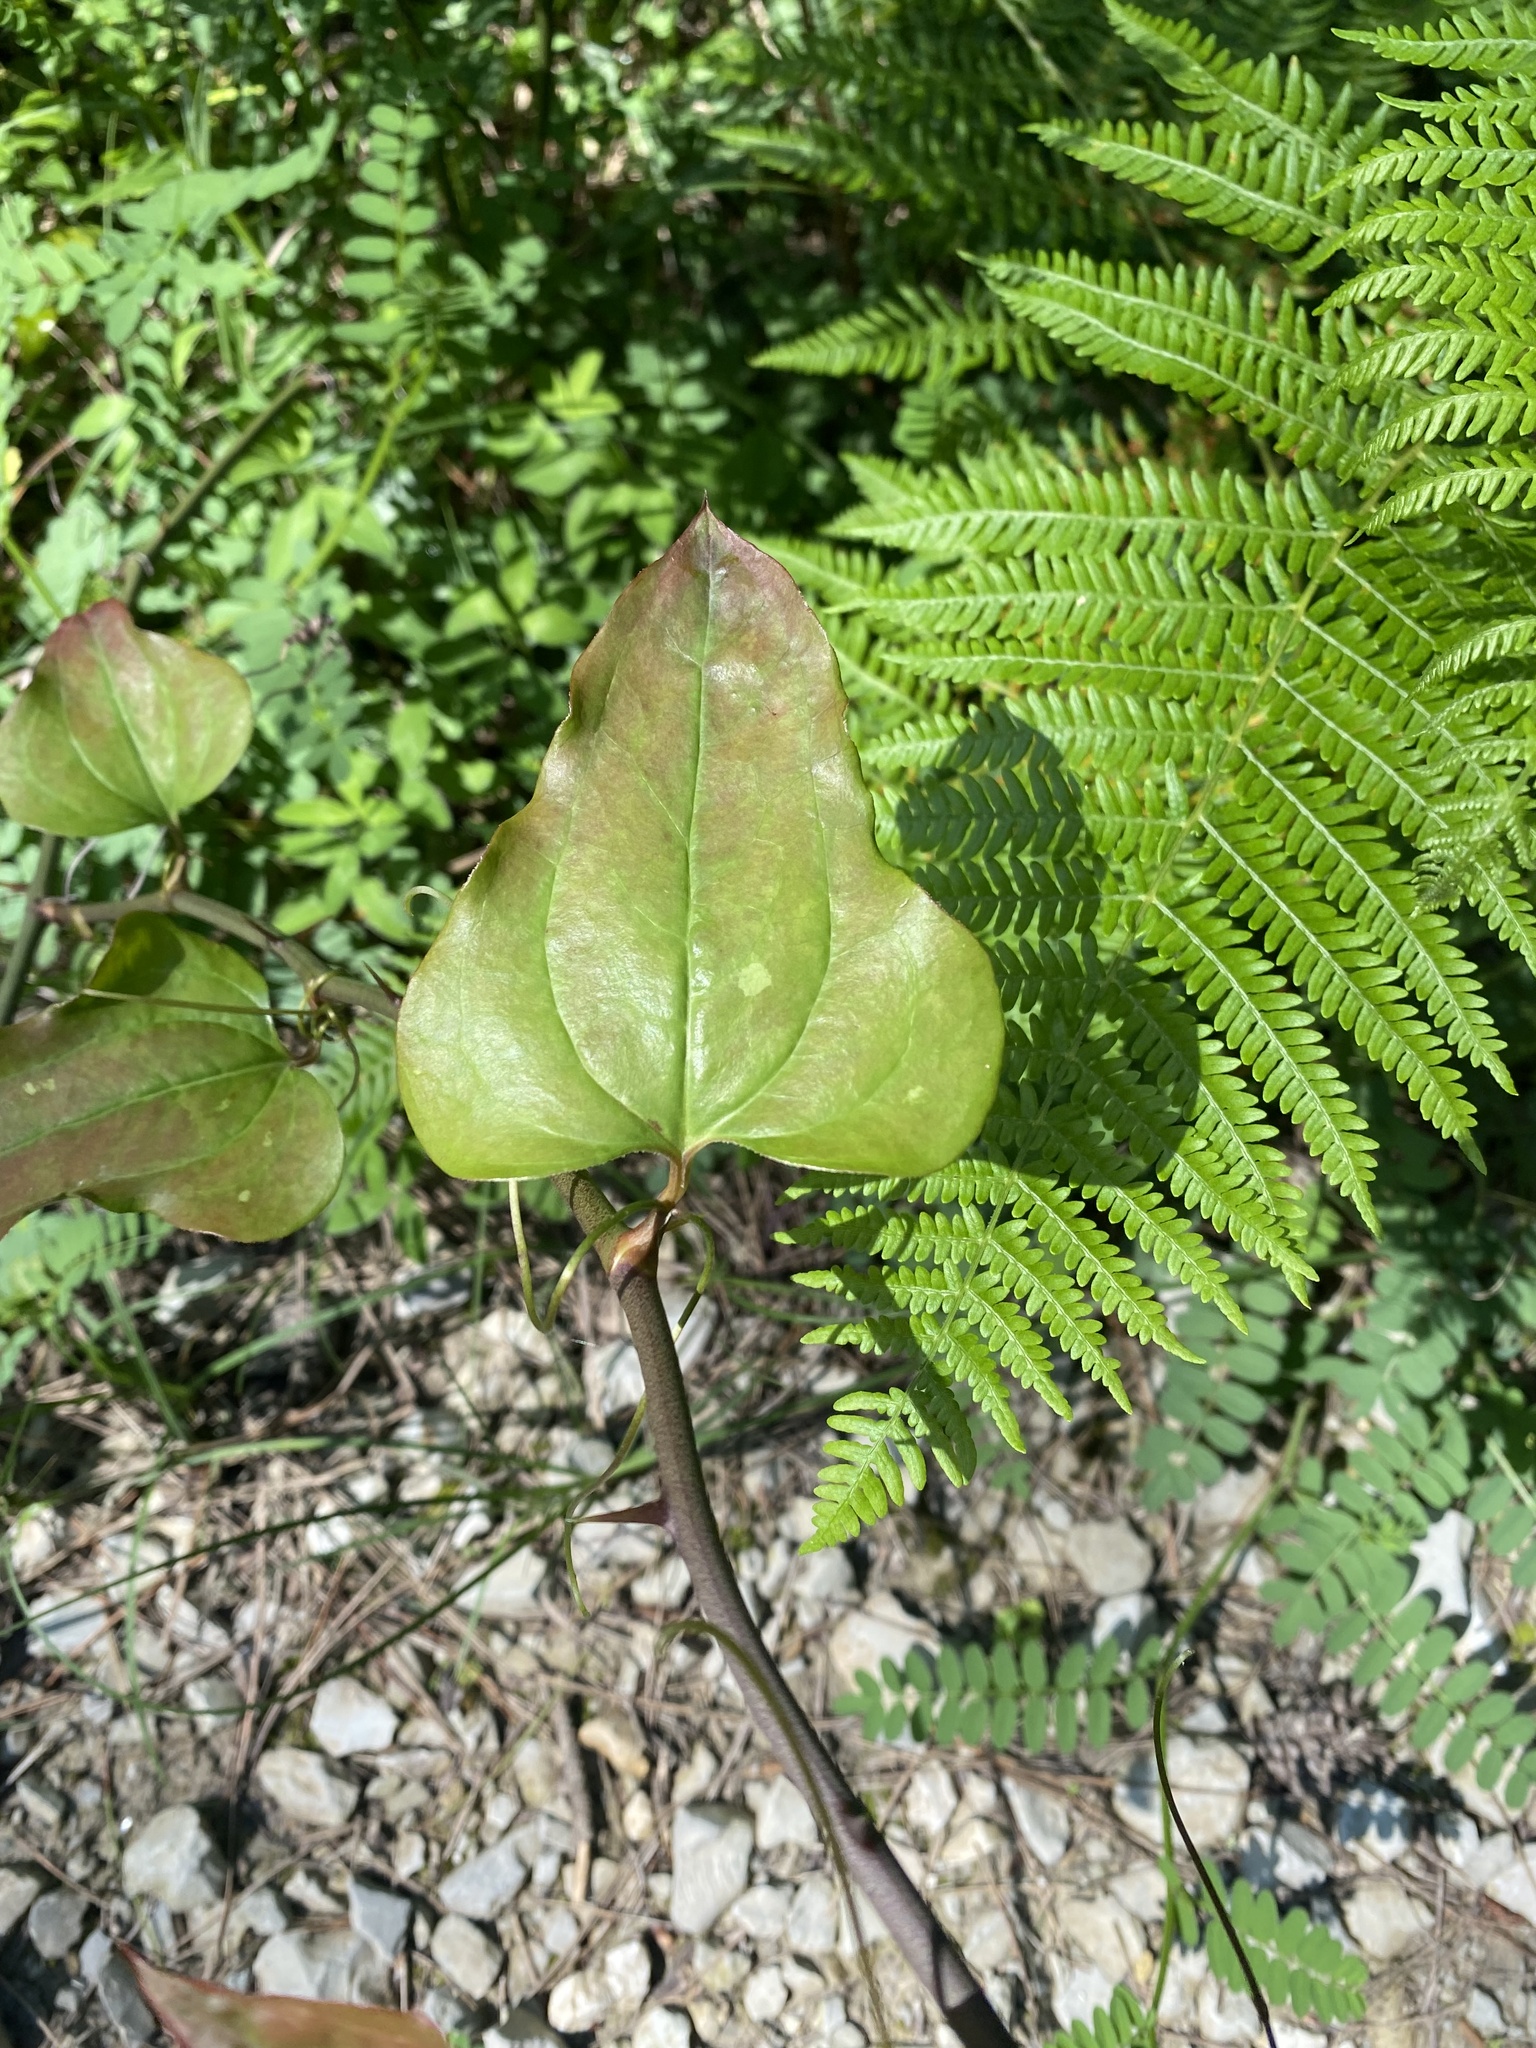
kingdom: Plantae
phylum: Tracheophyta
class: Liliopsida
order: Liliales
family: Smilacaceae
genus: Smilax
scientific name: Smilax excelsa
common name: Larger smilax
